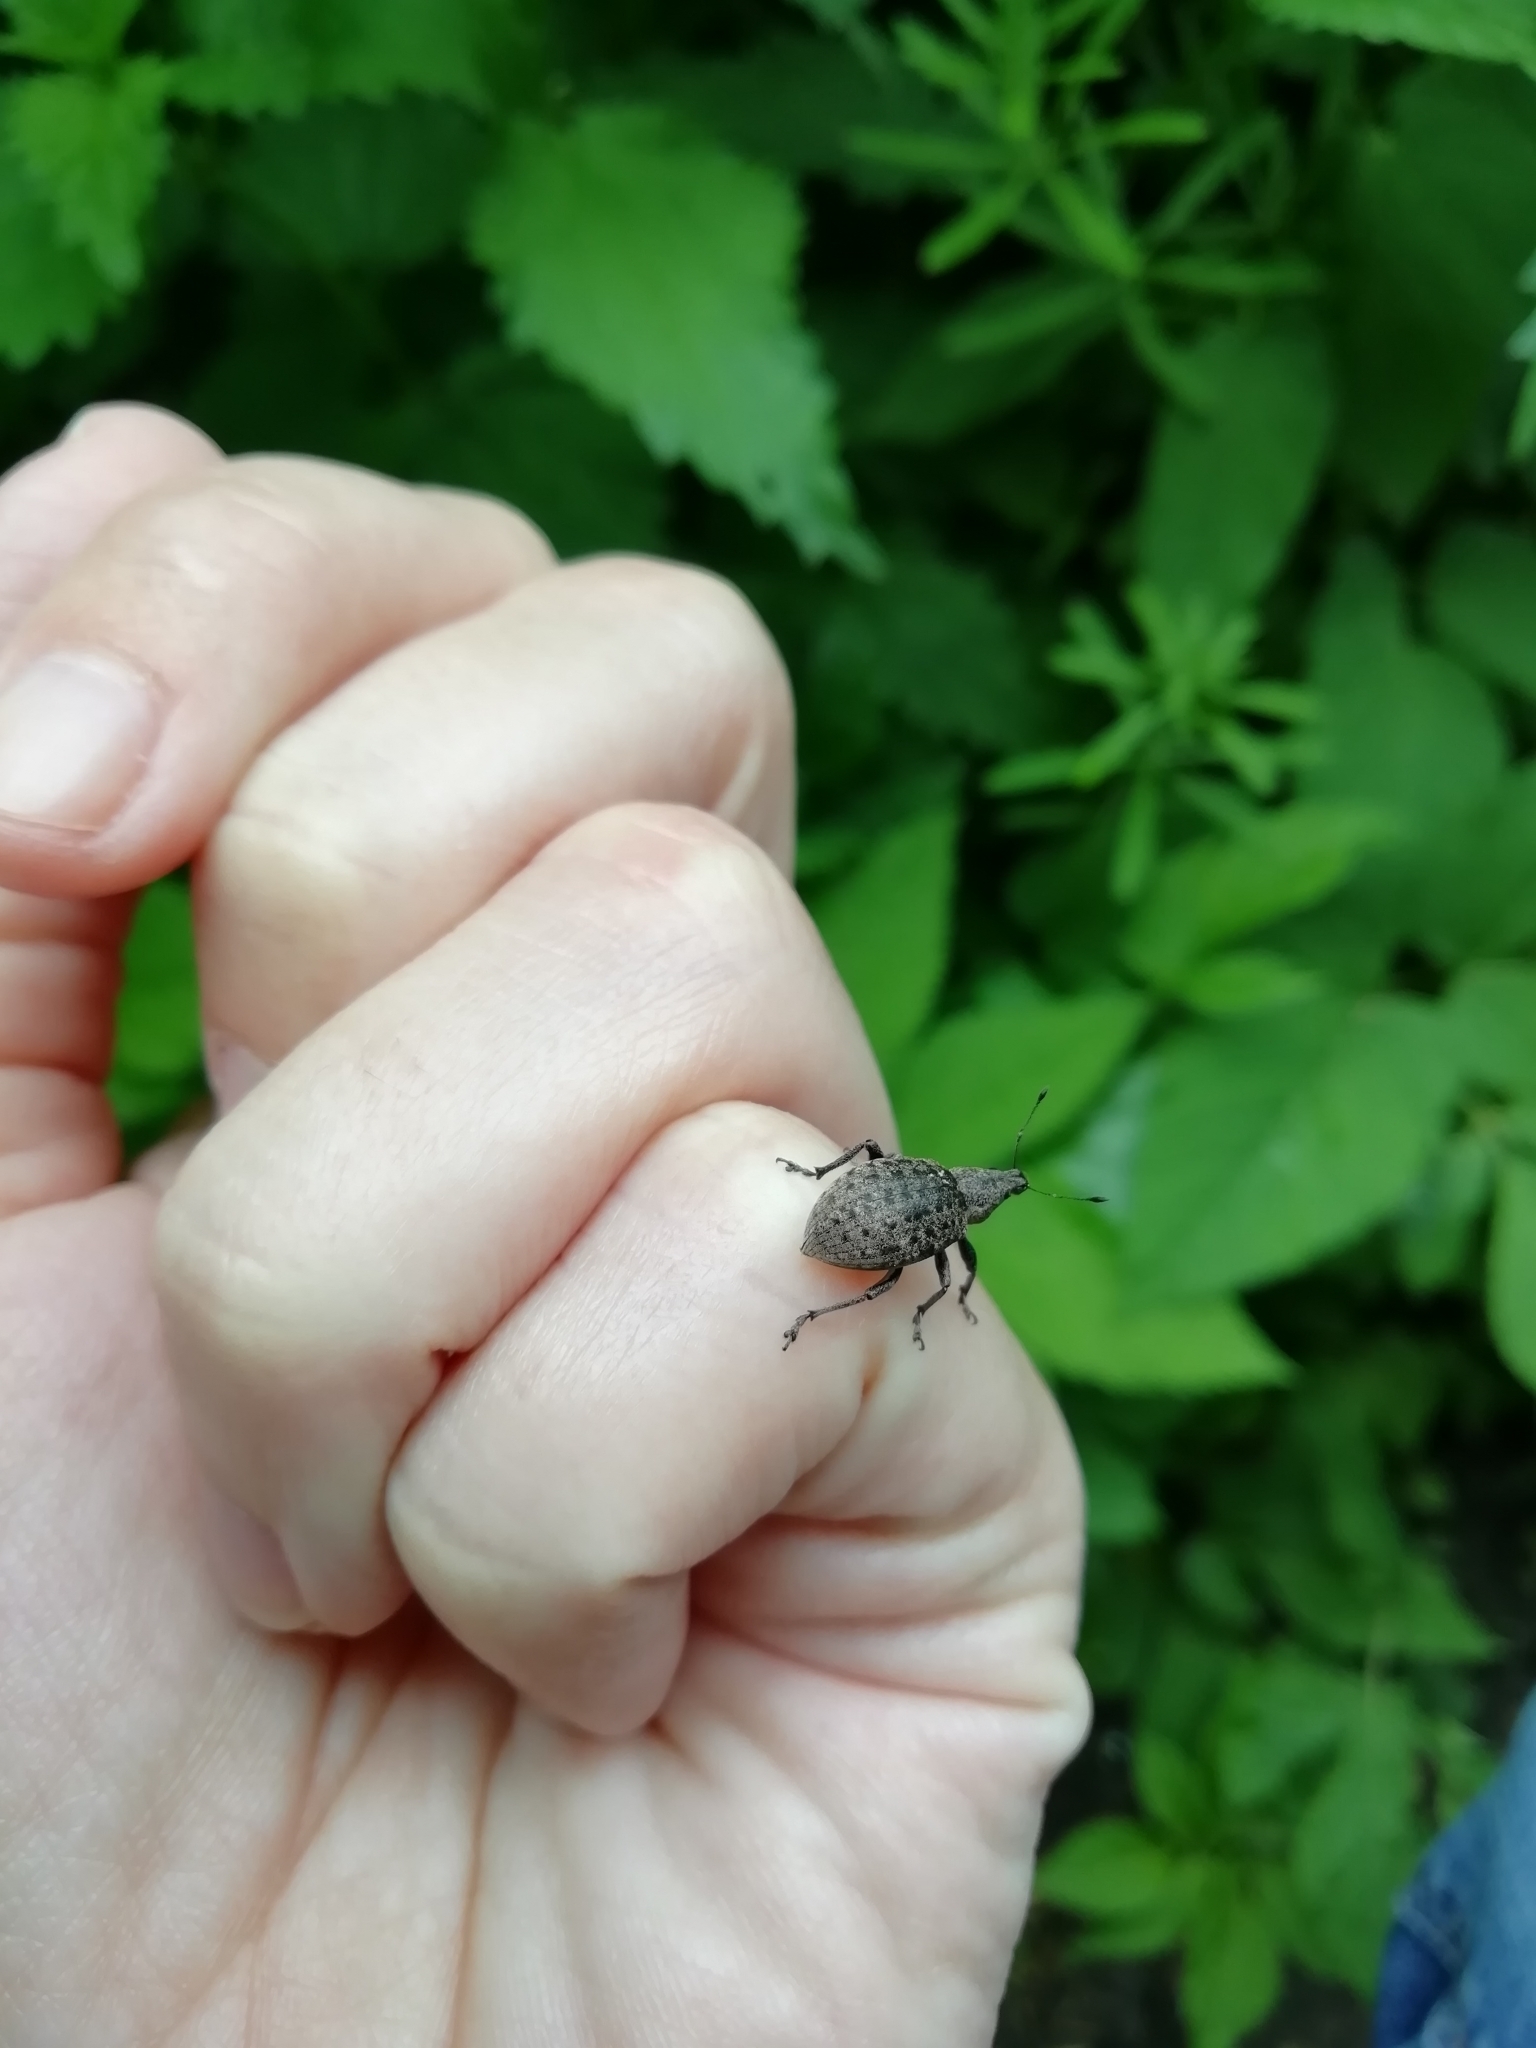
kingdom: Animalia
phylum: Arthropoda
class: Insecta
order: Coleoptera
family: Curculionidae
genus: Liophloeus
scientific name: Liophloeus tessulatus
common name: Weevil
